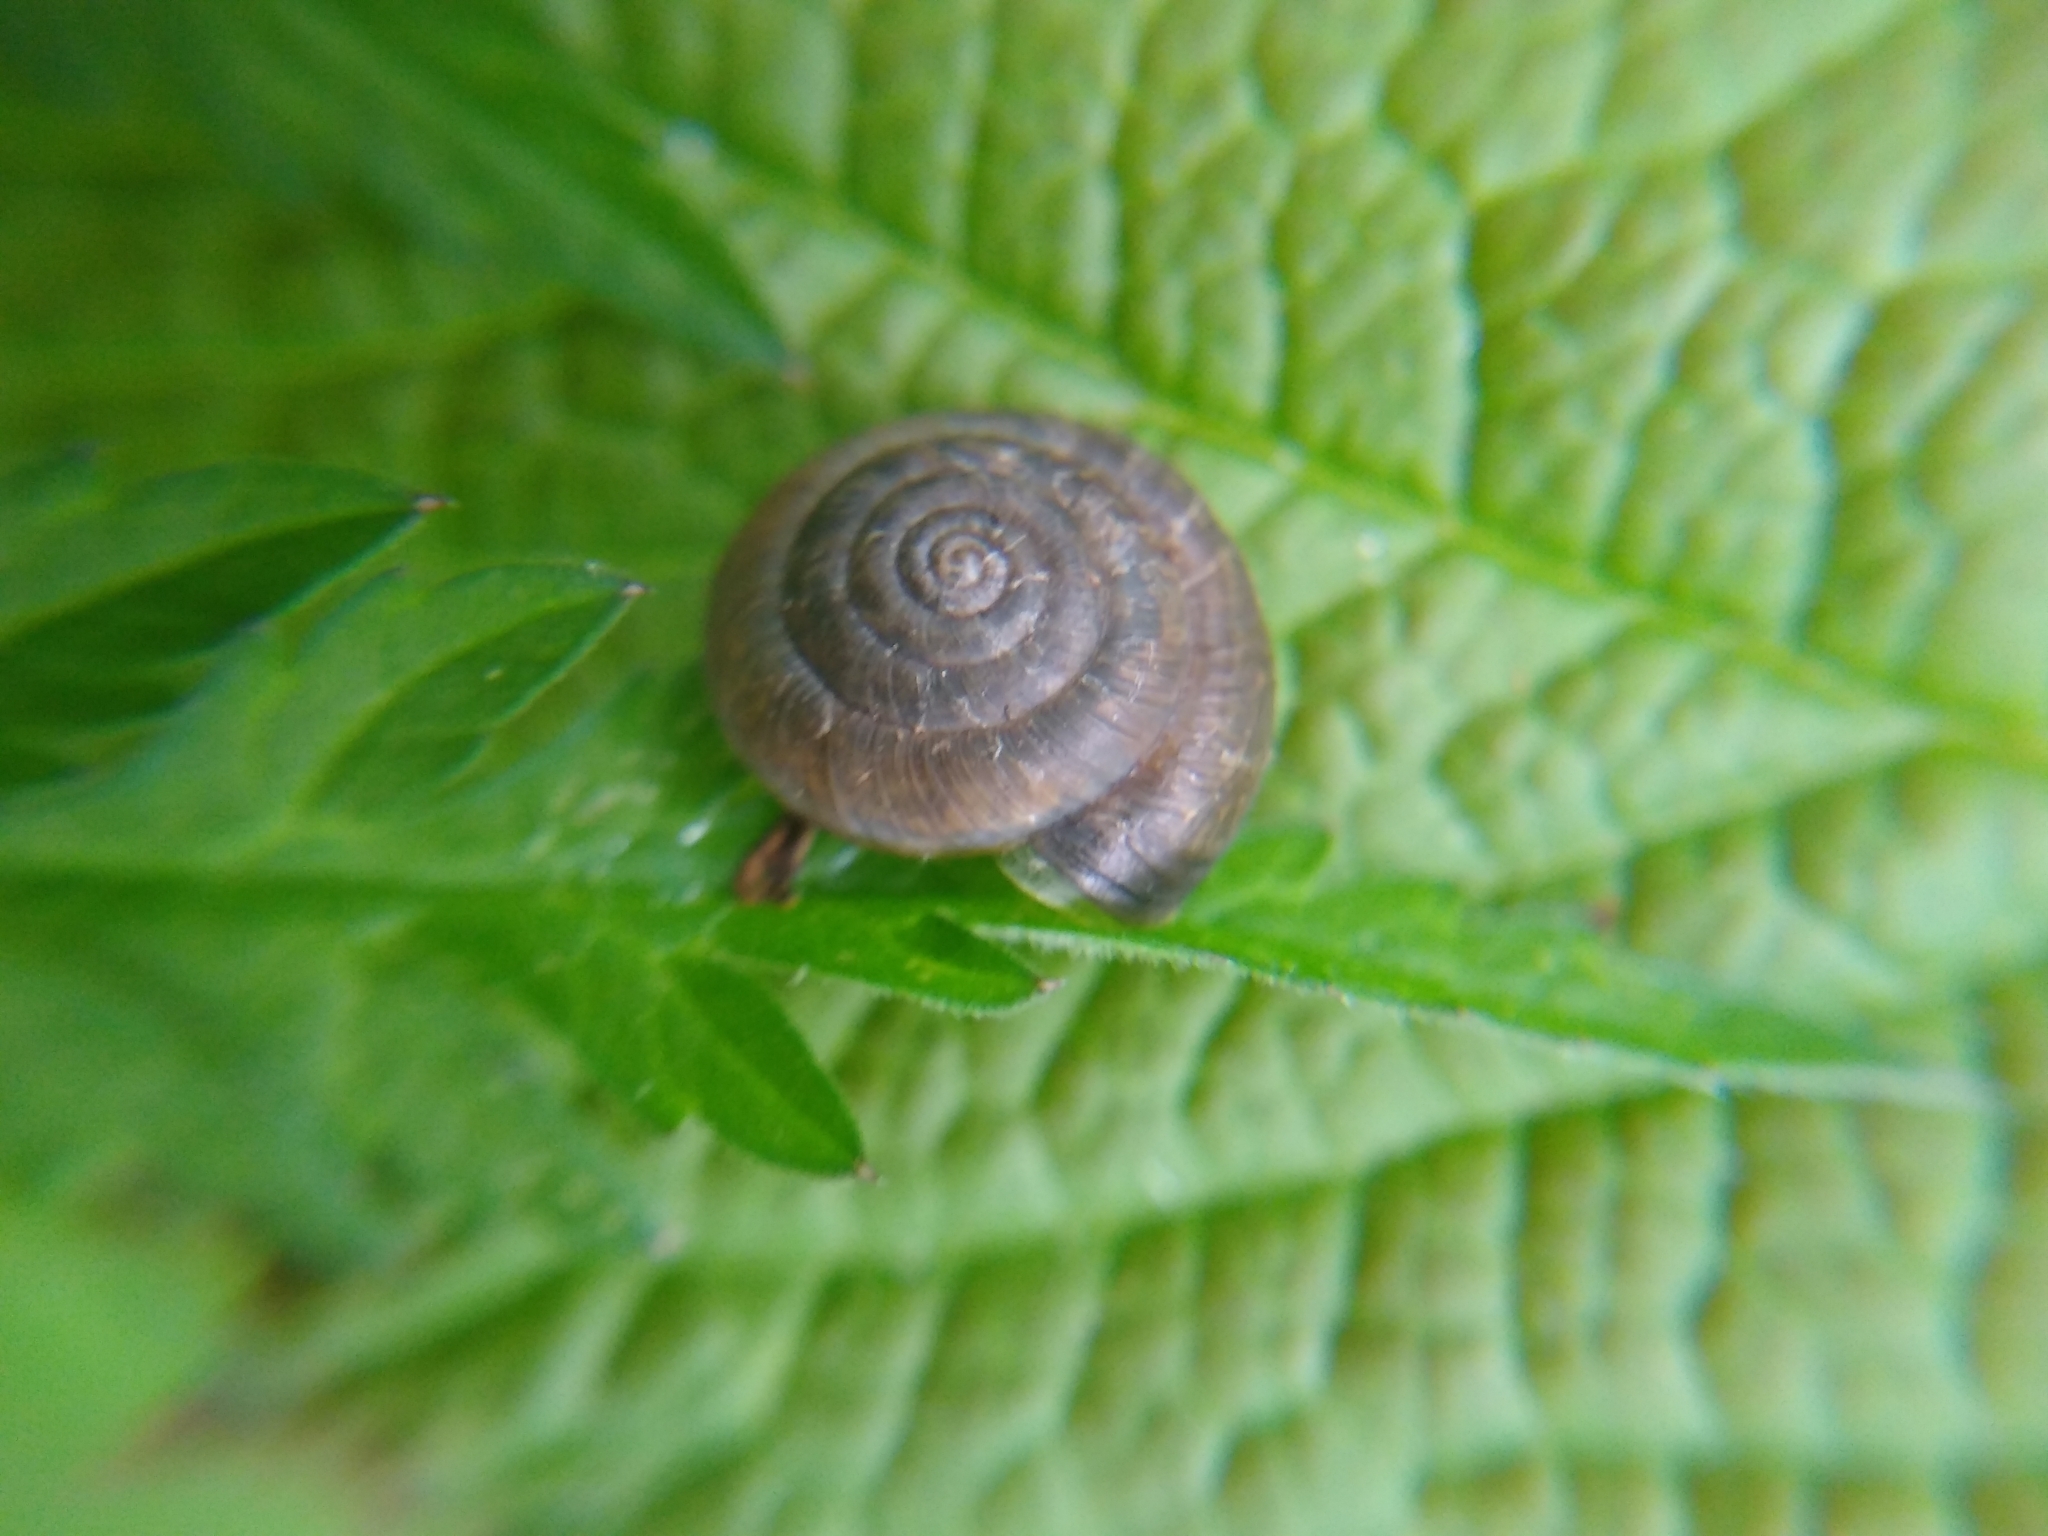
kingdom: Animalia
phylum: Mollusca
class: Gastropoda
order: Stylommatophora
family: Hygromiidae
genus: Trochulus
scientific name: Trochulus striolatus
